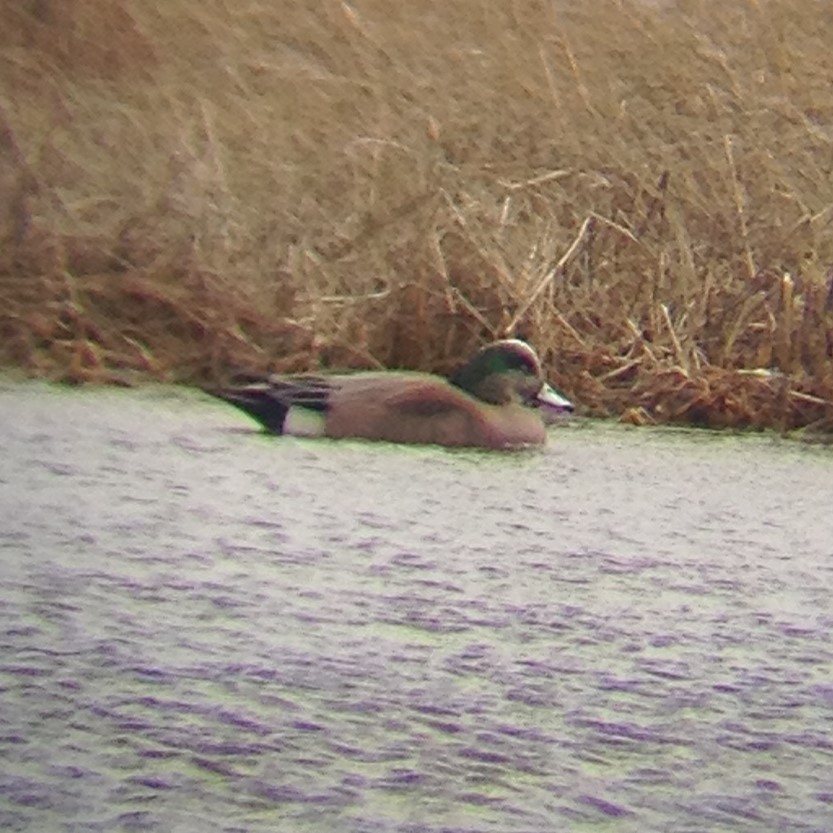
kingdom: Animalia
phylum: Chordata
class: Aves
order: Anseriformes
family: Anatidae
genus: Mareca
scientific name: Mareca americana
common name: American wigeon
